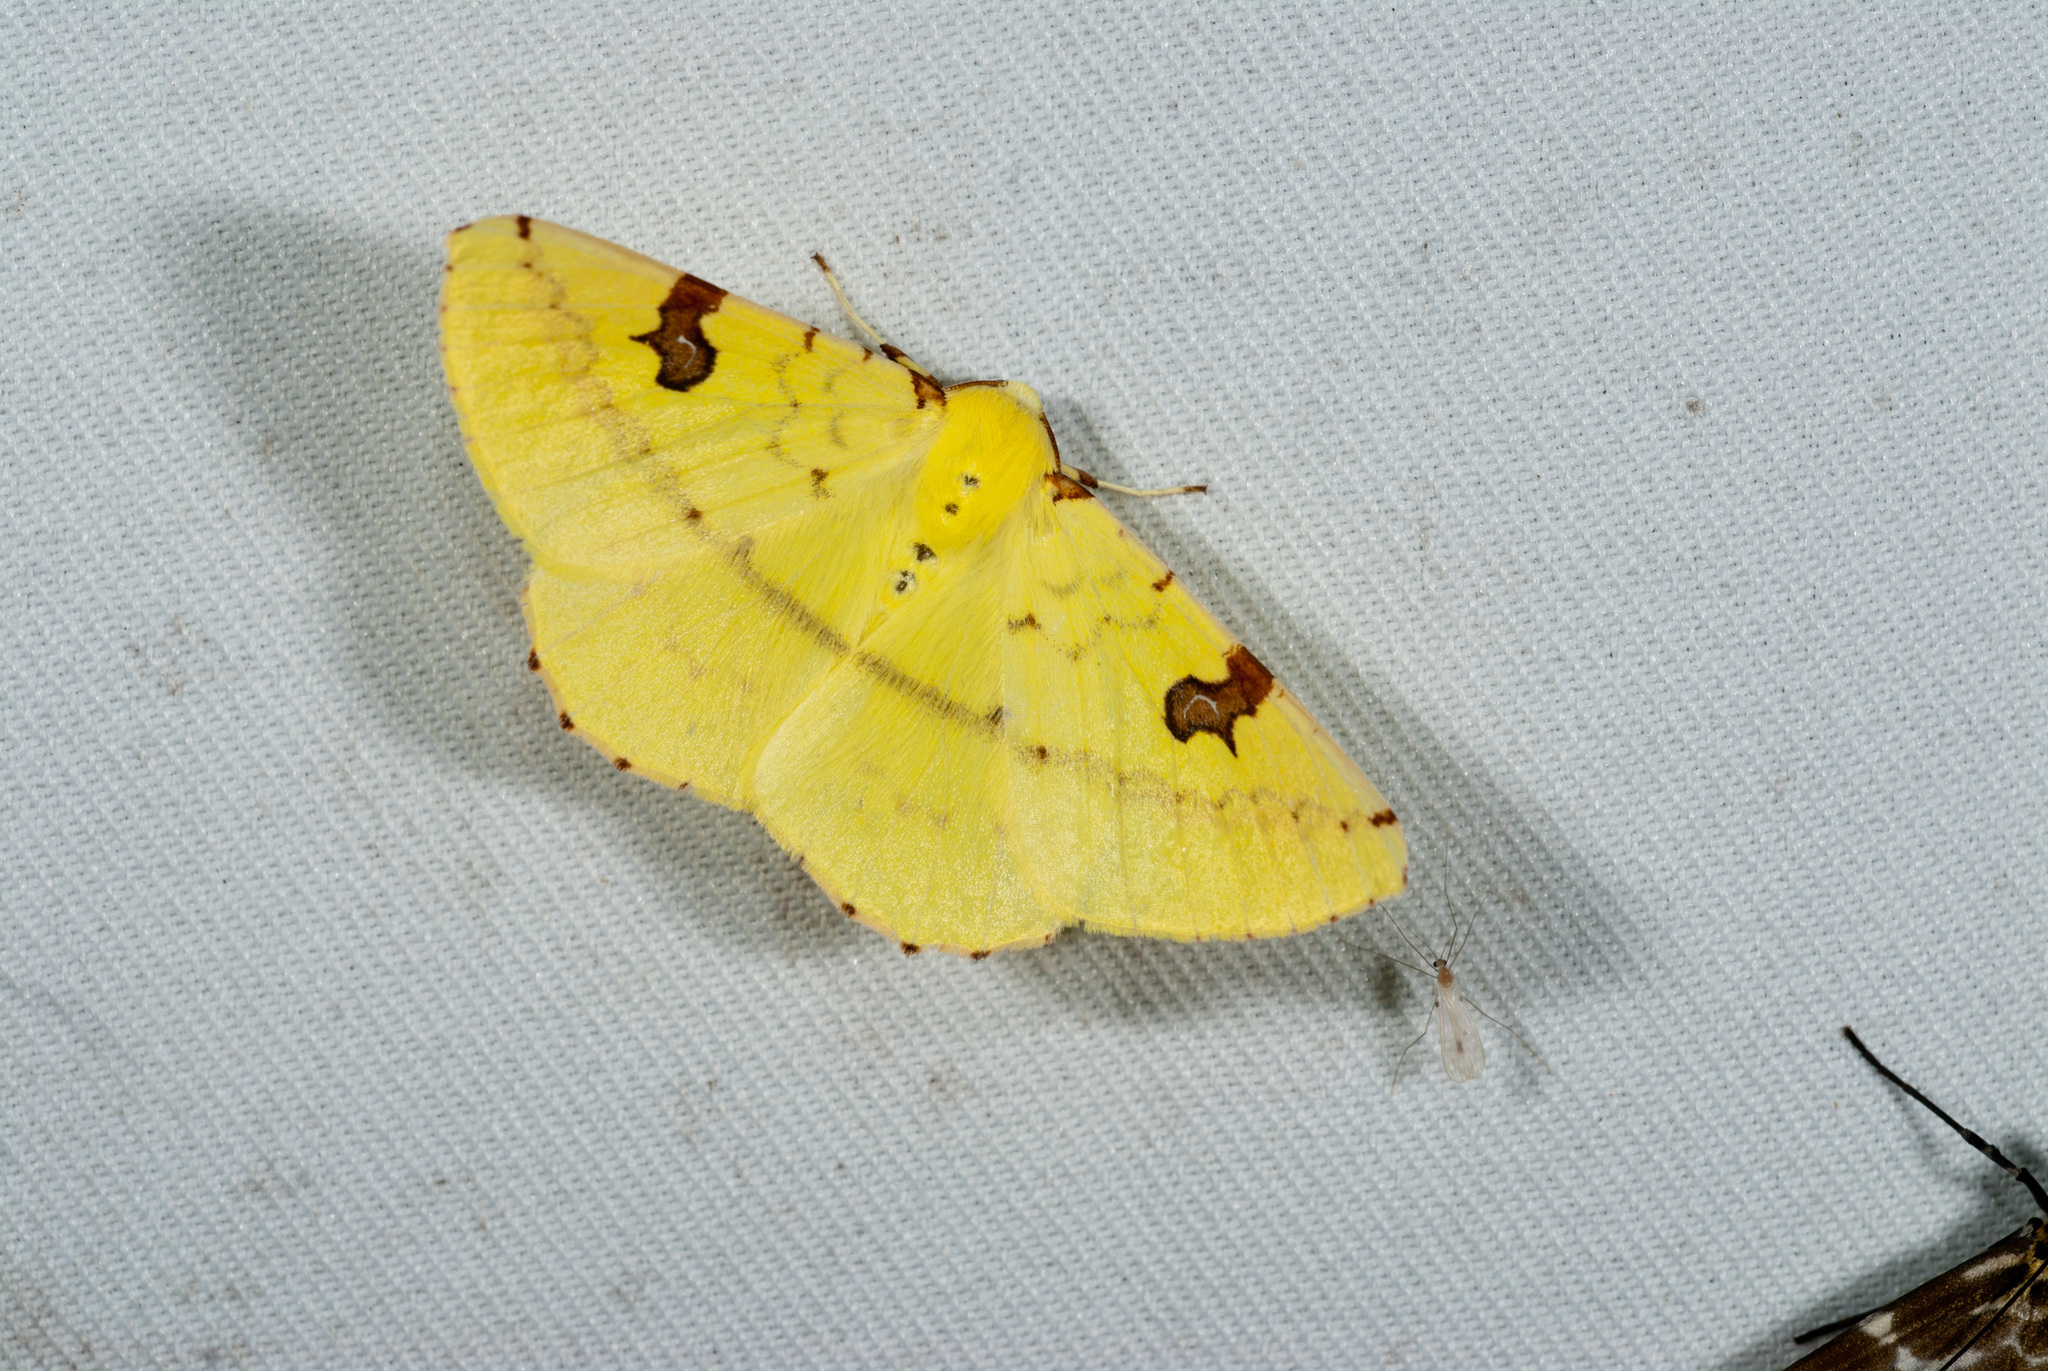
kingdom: Animalia
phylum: Arthropoda
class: Insecta
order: Lepidoptera
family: Geometridae
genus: Opisthograptis
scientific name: Opisthograptis punctilineata
